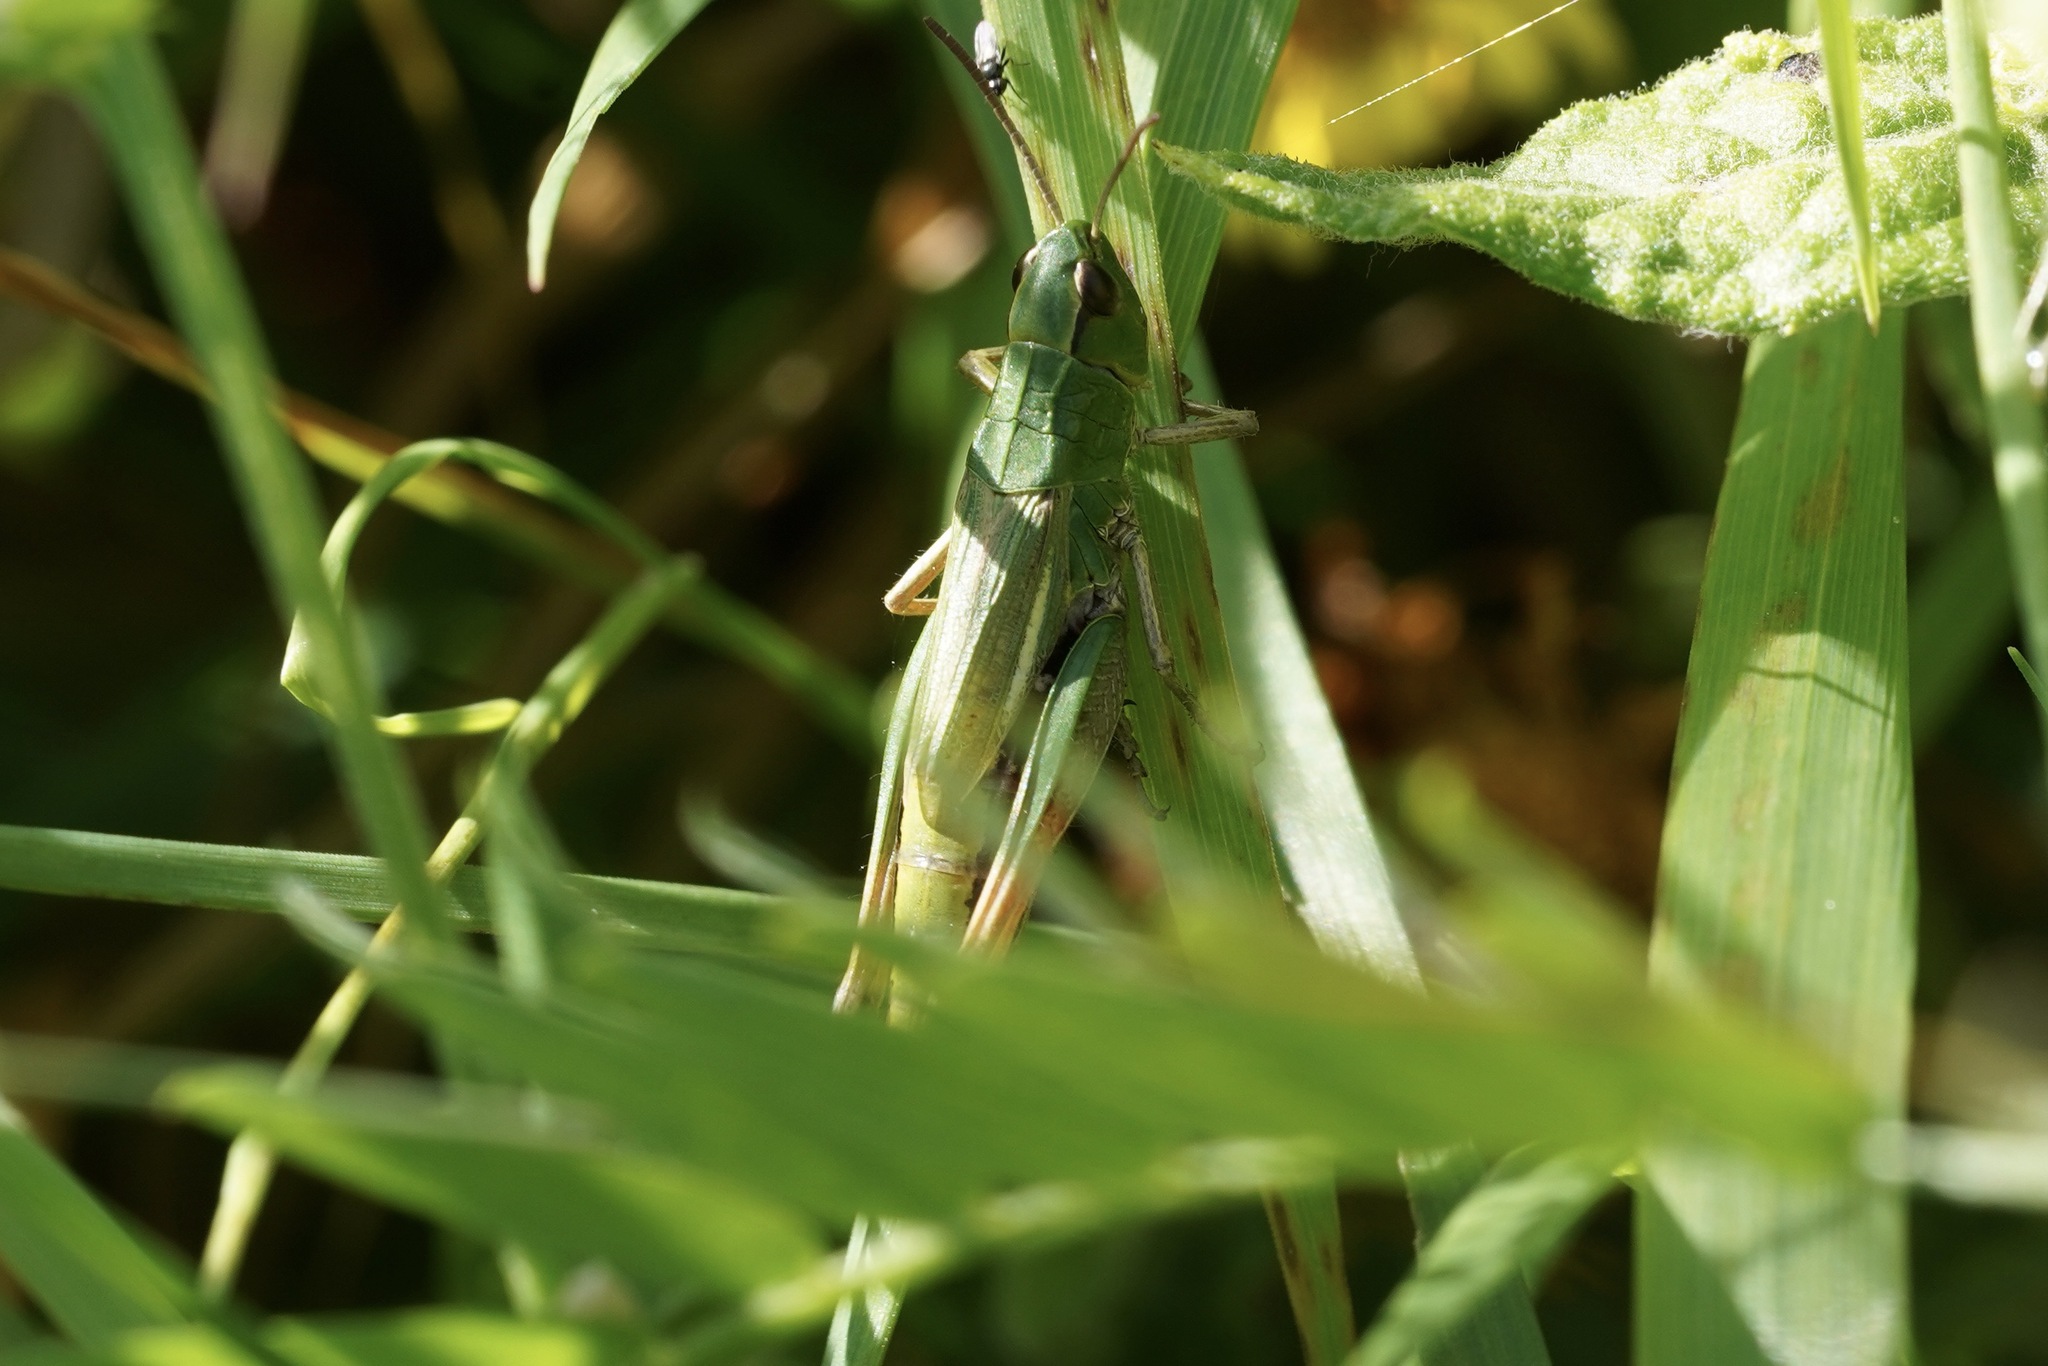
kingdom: Animalia
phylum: Arthropoda
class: Insecta
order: Orthoptera
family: Acrididae
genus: Pseudochorthippus
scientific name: Pseudochorthippus parallelus
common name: Meadow grasshopper
